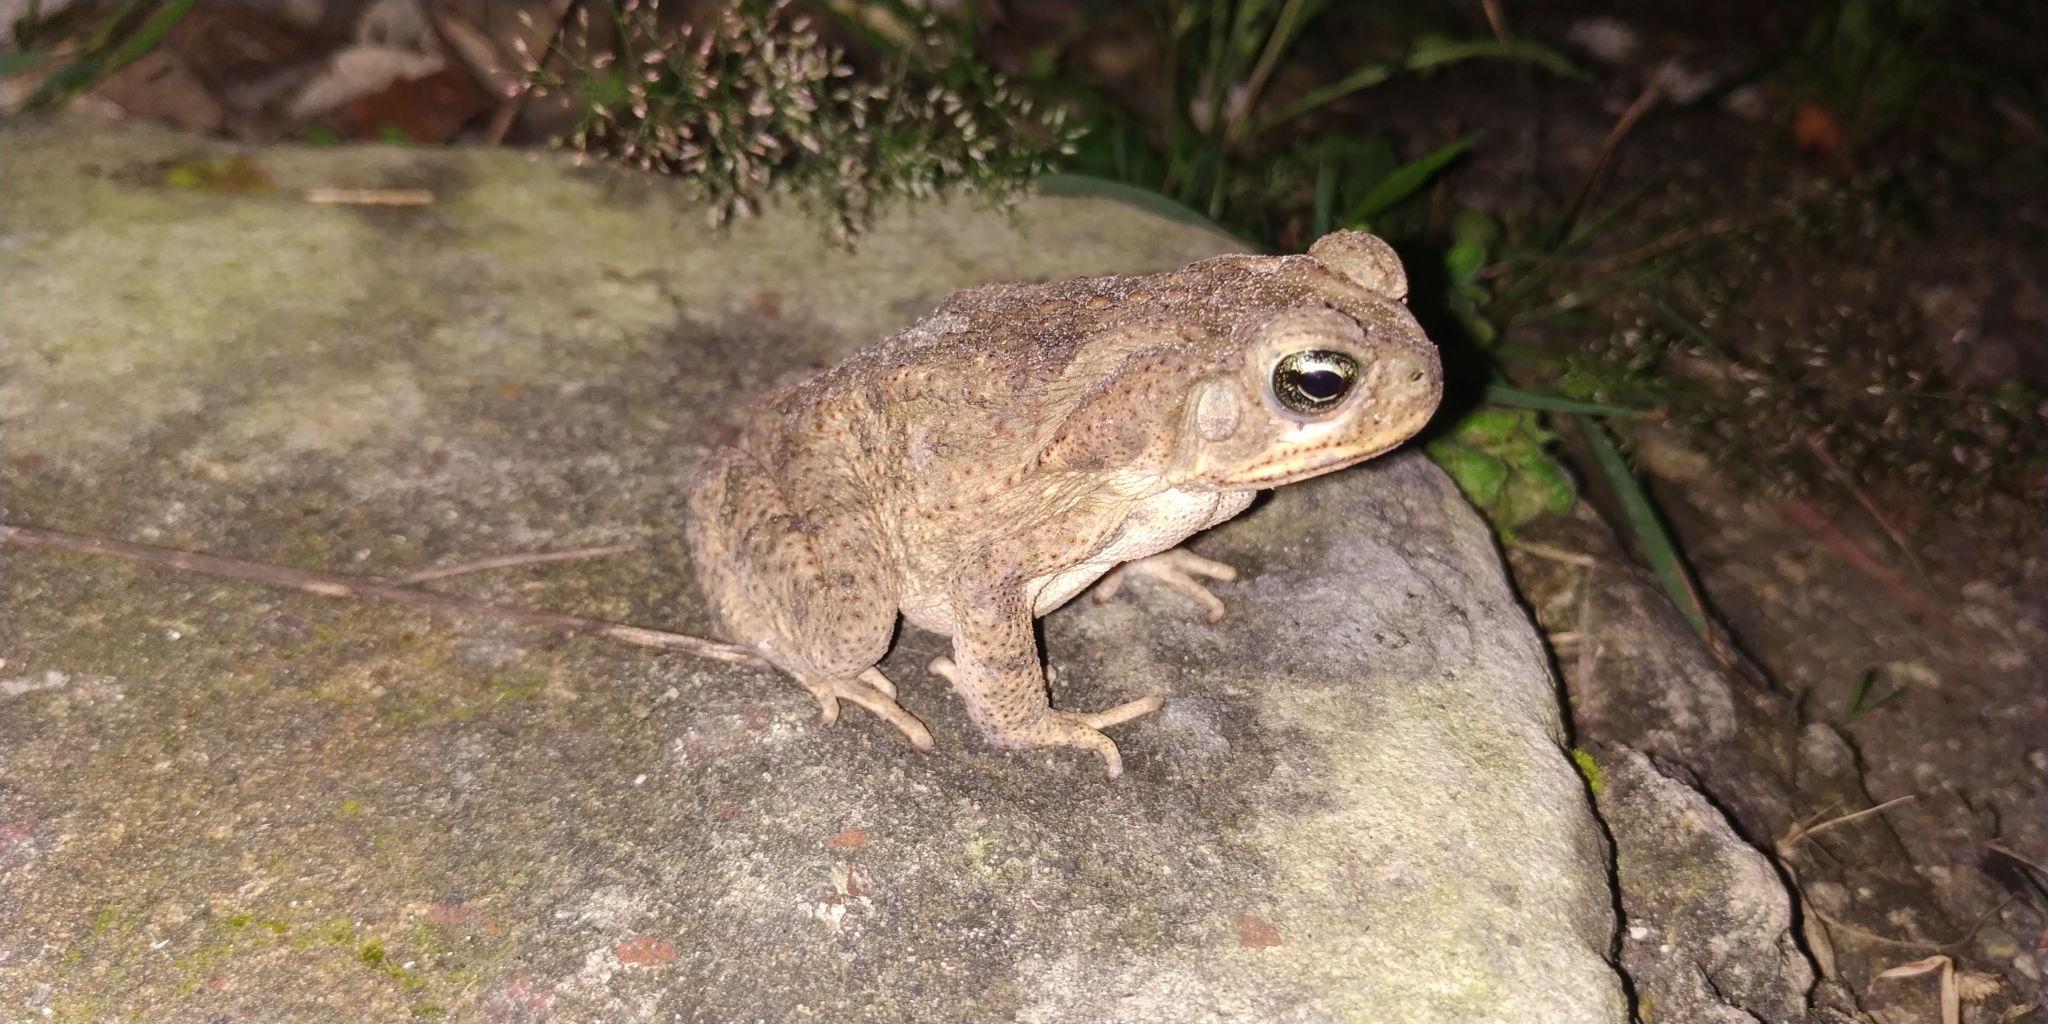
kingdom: Animalia
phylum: Chordata
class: Amphibia
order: Anura
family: Bufonidae
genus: Rhinella
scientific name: Rhinella horribilis
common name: Mesoamerican cane toad
